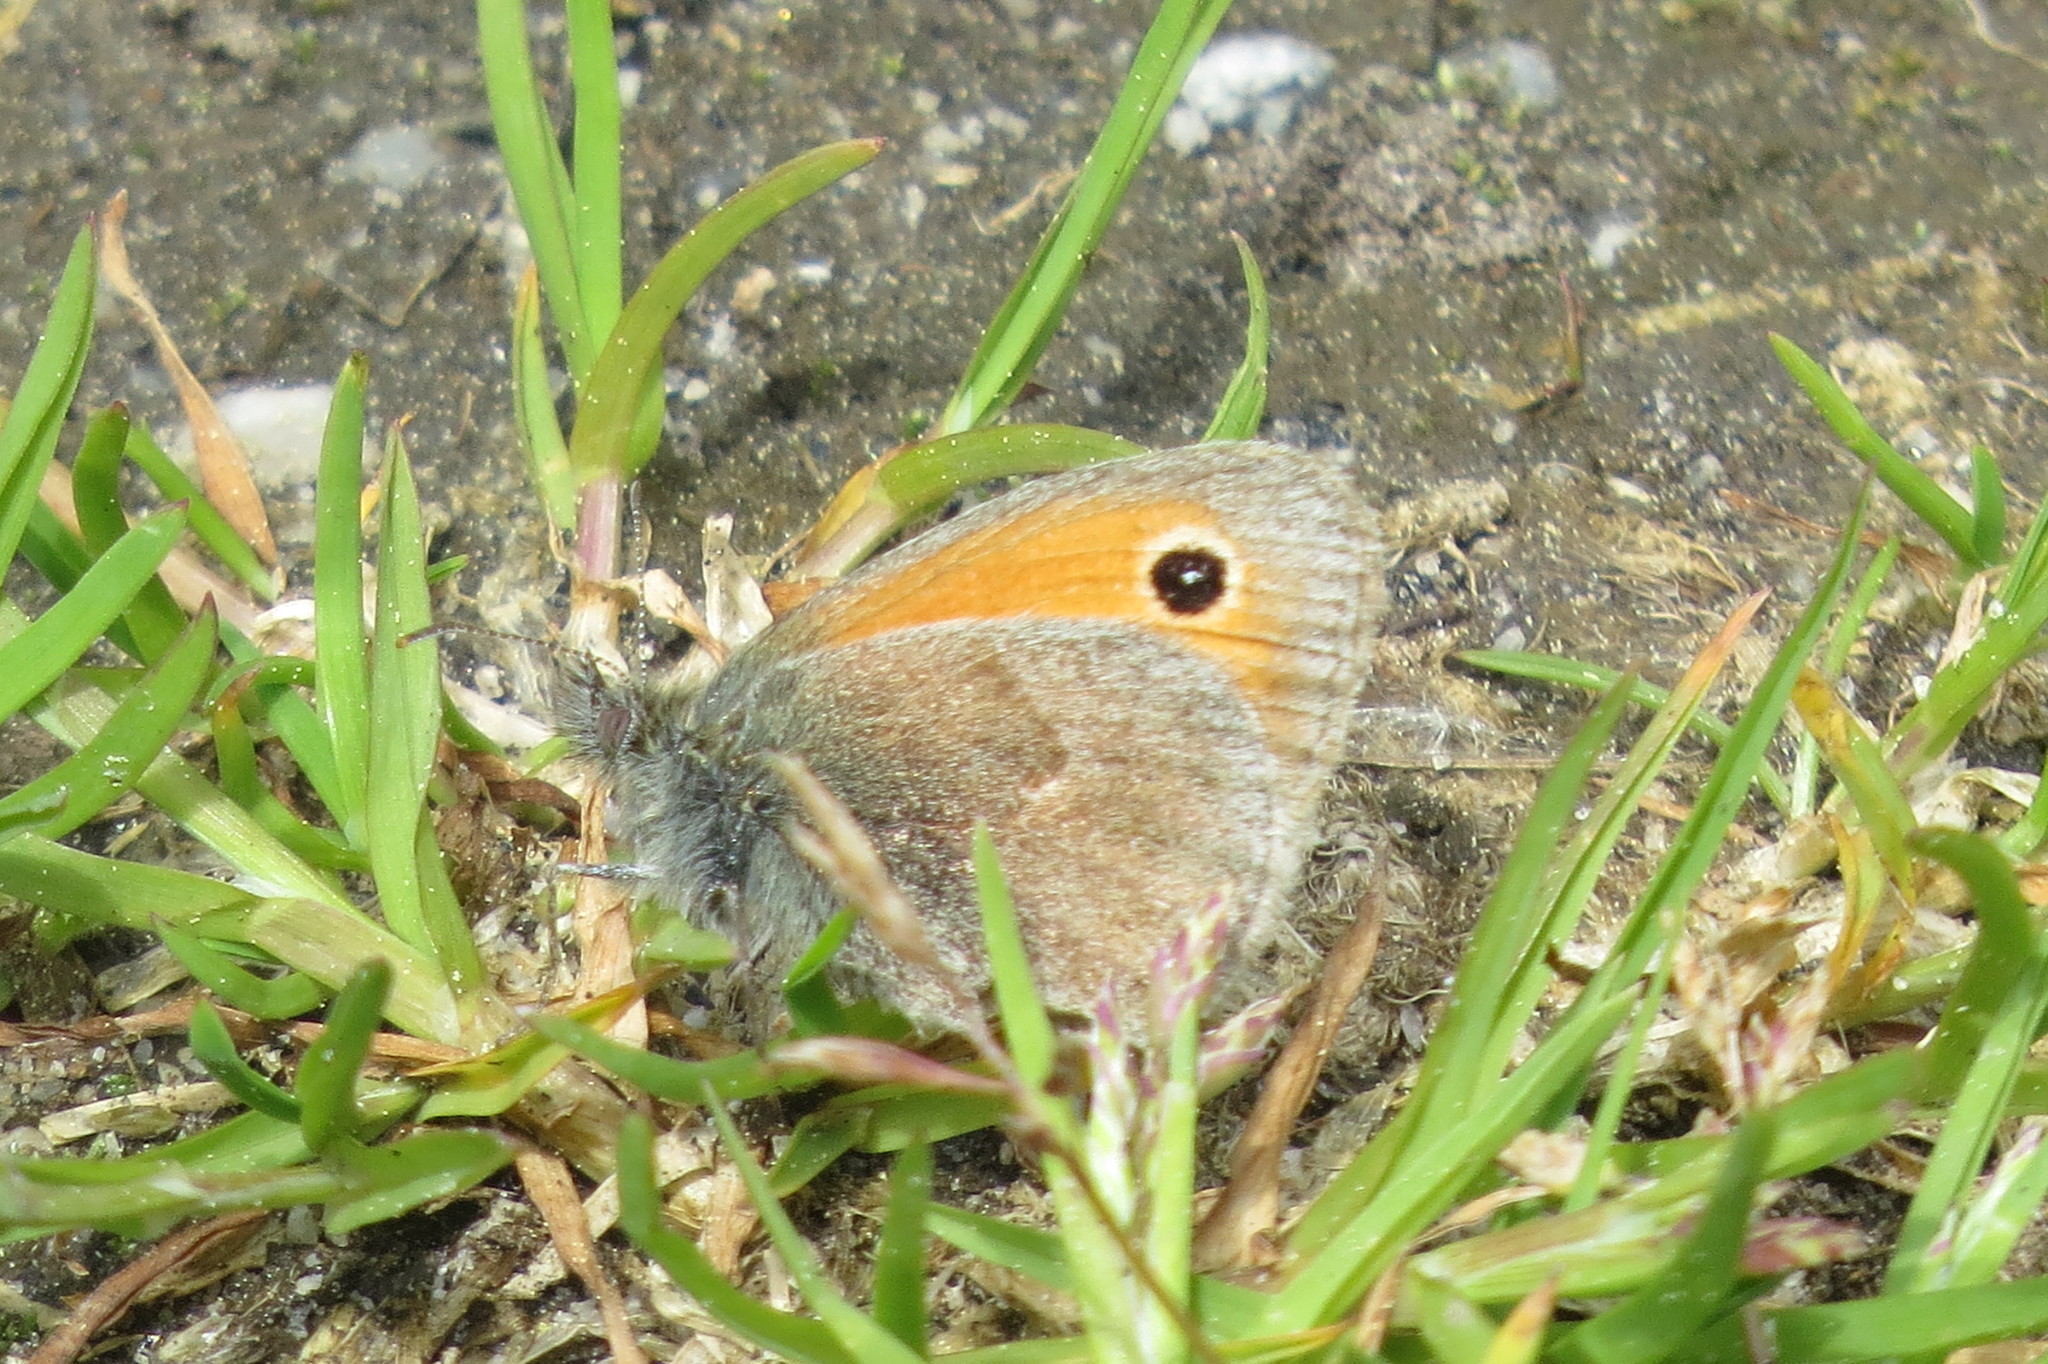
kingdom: Animalia
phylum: Arthropoda
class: Insecta
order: Lepidoptera
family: Nymphalidae
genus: Coenonympha
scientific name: Coenonympha pamphilus
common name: Small heath
